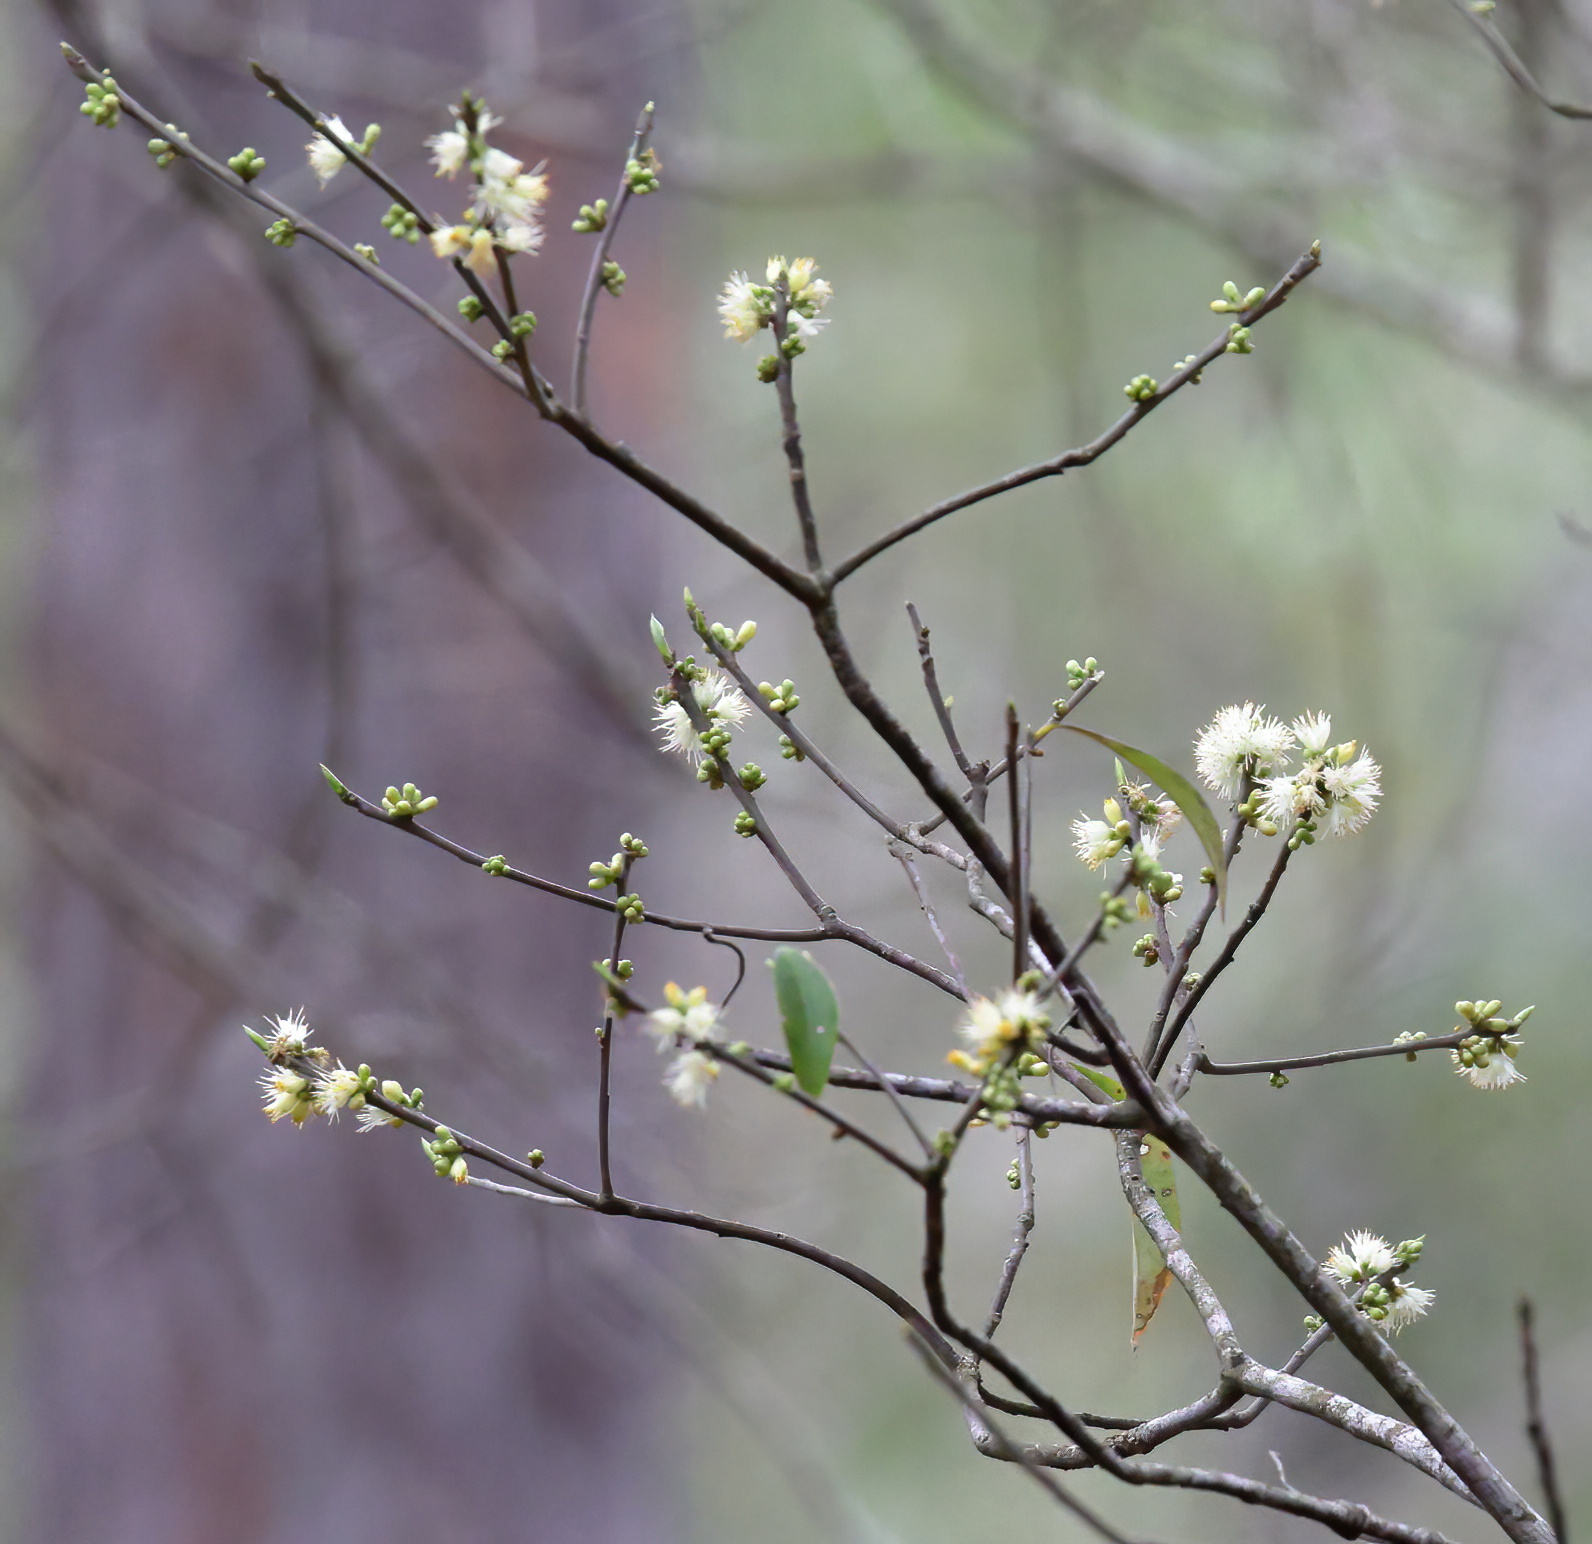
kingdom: Plantae
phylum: Tracheophyta
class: Magnoliopsida
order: Ericales
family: Symplocaceae
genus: Symplocos
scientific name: Symplocos tinctoria
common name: Horse-sugar
